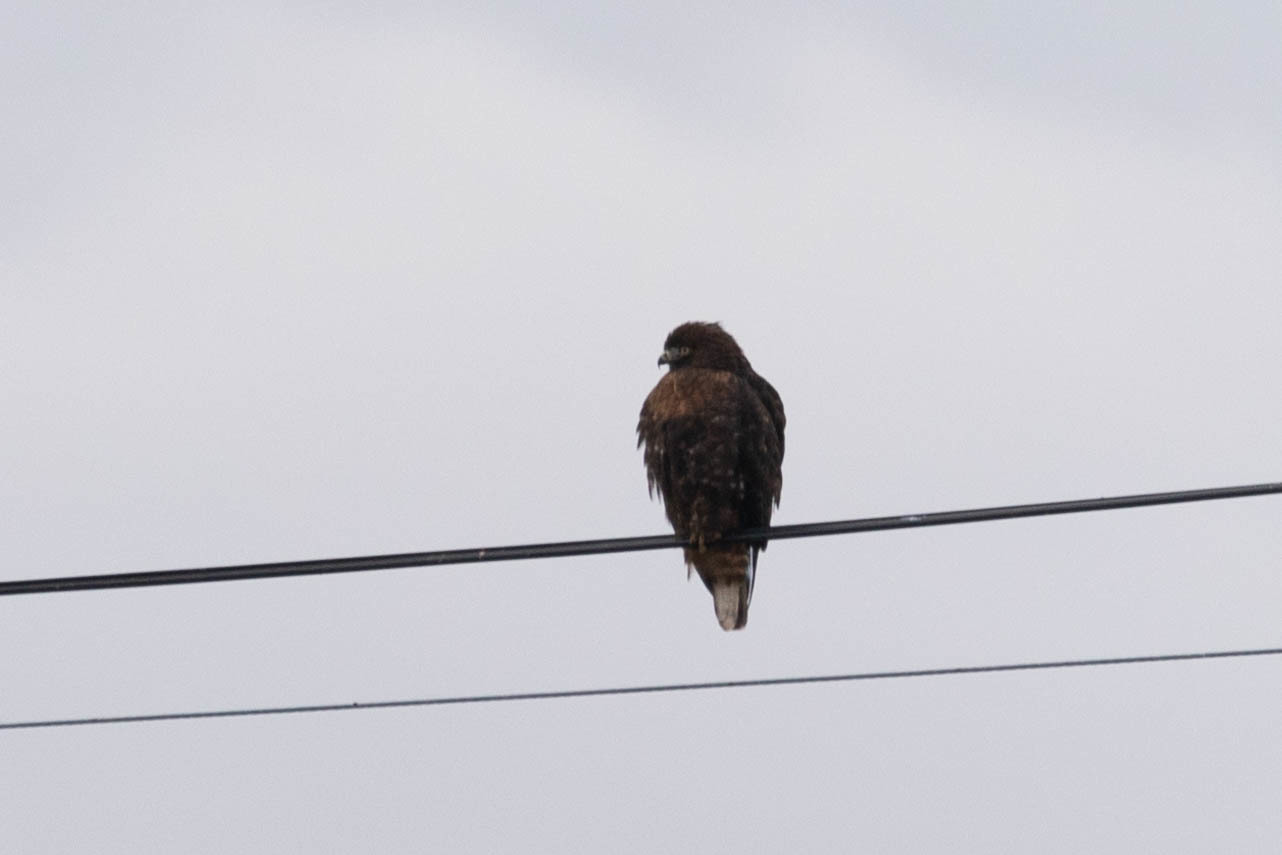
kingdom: Animalia
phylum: Chordata
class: Aves
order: Accipitriformes
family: Accipitridae
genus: Buteo
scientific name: Buteo jamaicensis
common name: Red-tailed hawk
